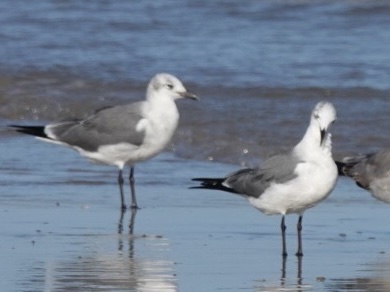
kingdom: Animalia
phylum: Chordata
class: Aves
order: Charadriiformes
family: Laridae
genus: Leucophaeus
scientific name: Leucophaeus atricilla
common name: Laughing gull
